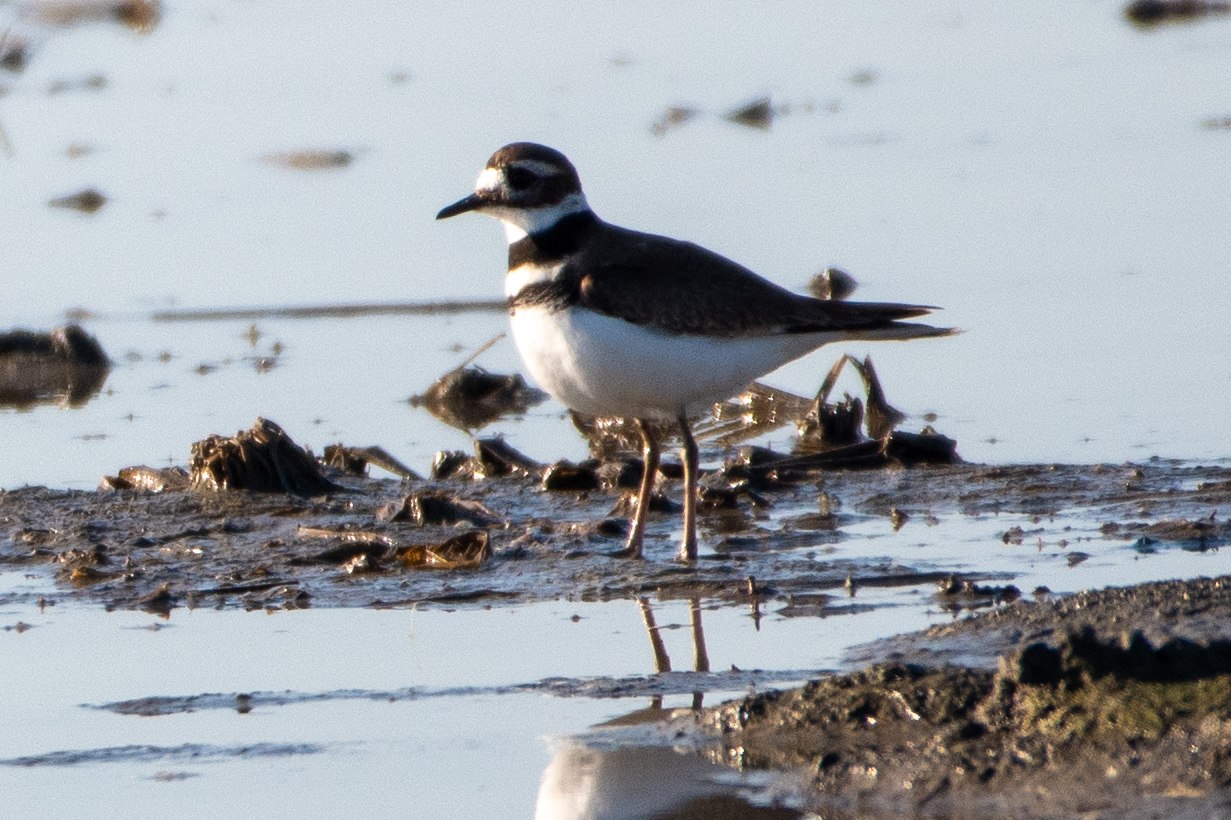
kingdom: Animalia
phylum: Chordata
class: Aves
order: Charadriiformes
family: Charadriidae
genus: Charadrius
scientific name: Charadrius vociferus
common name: Killdeer
